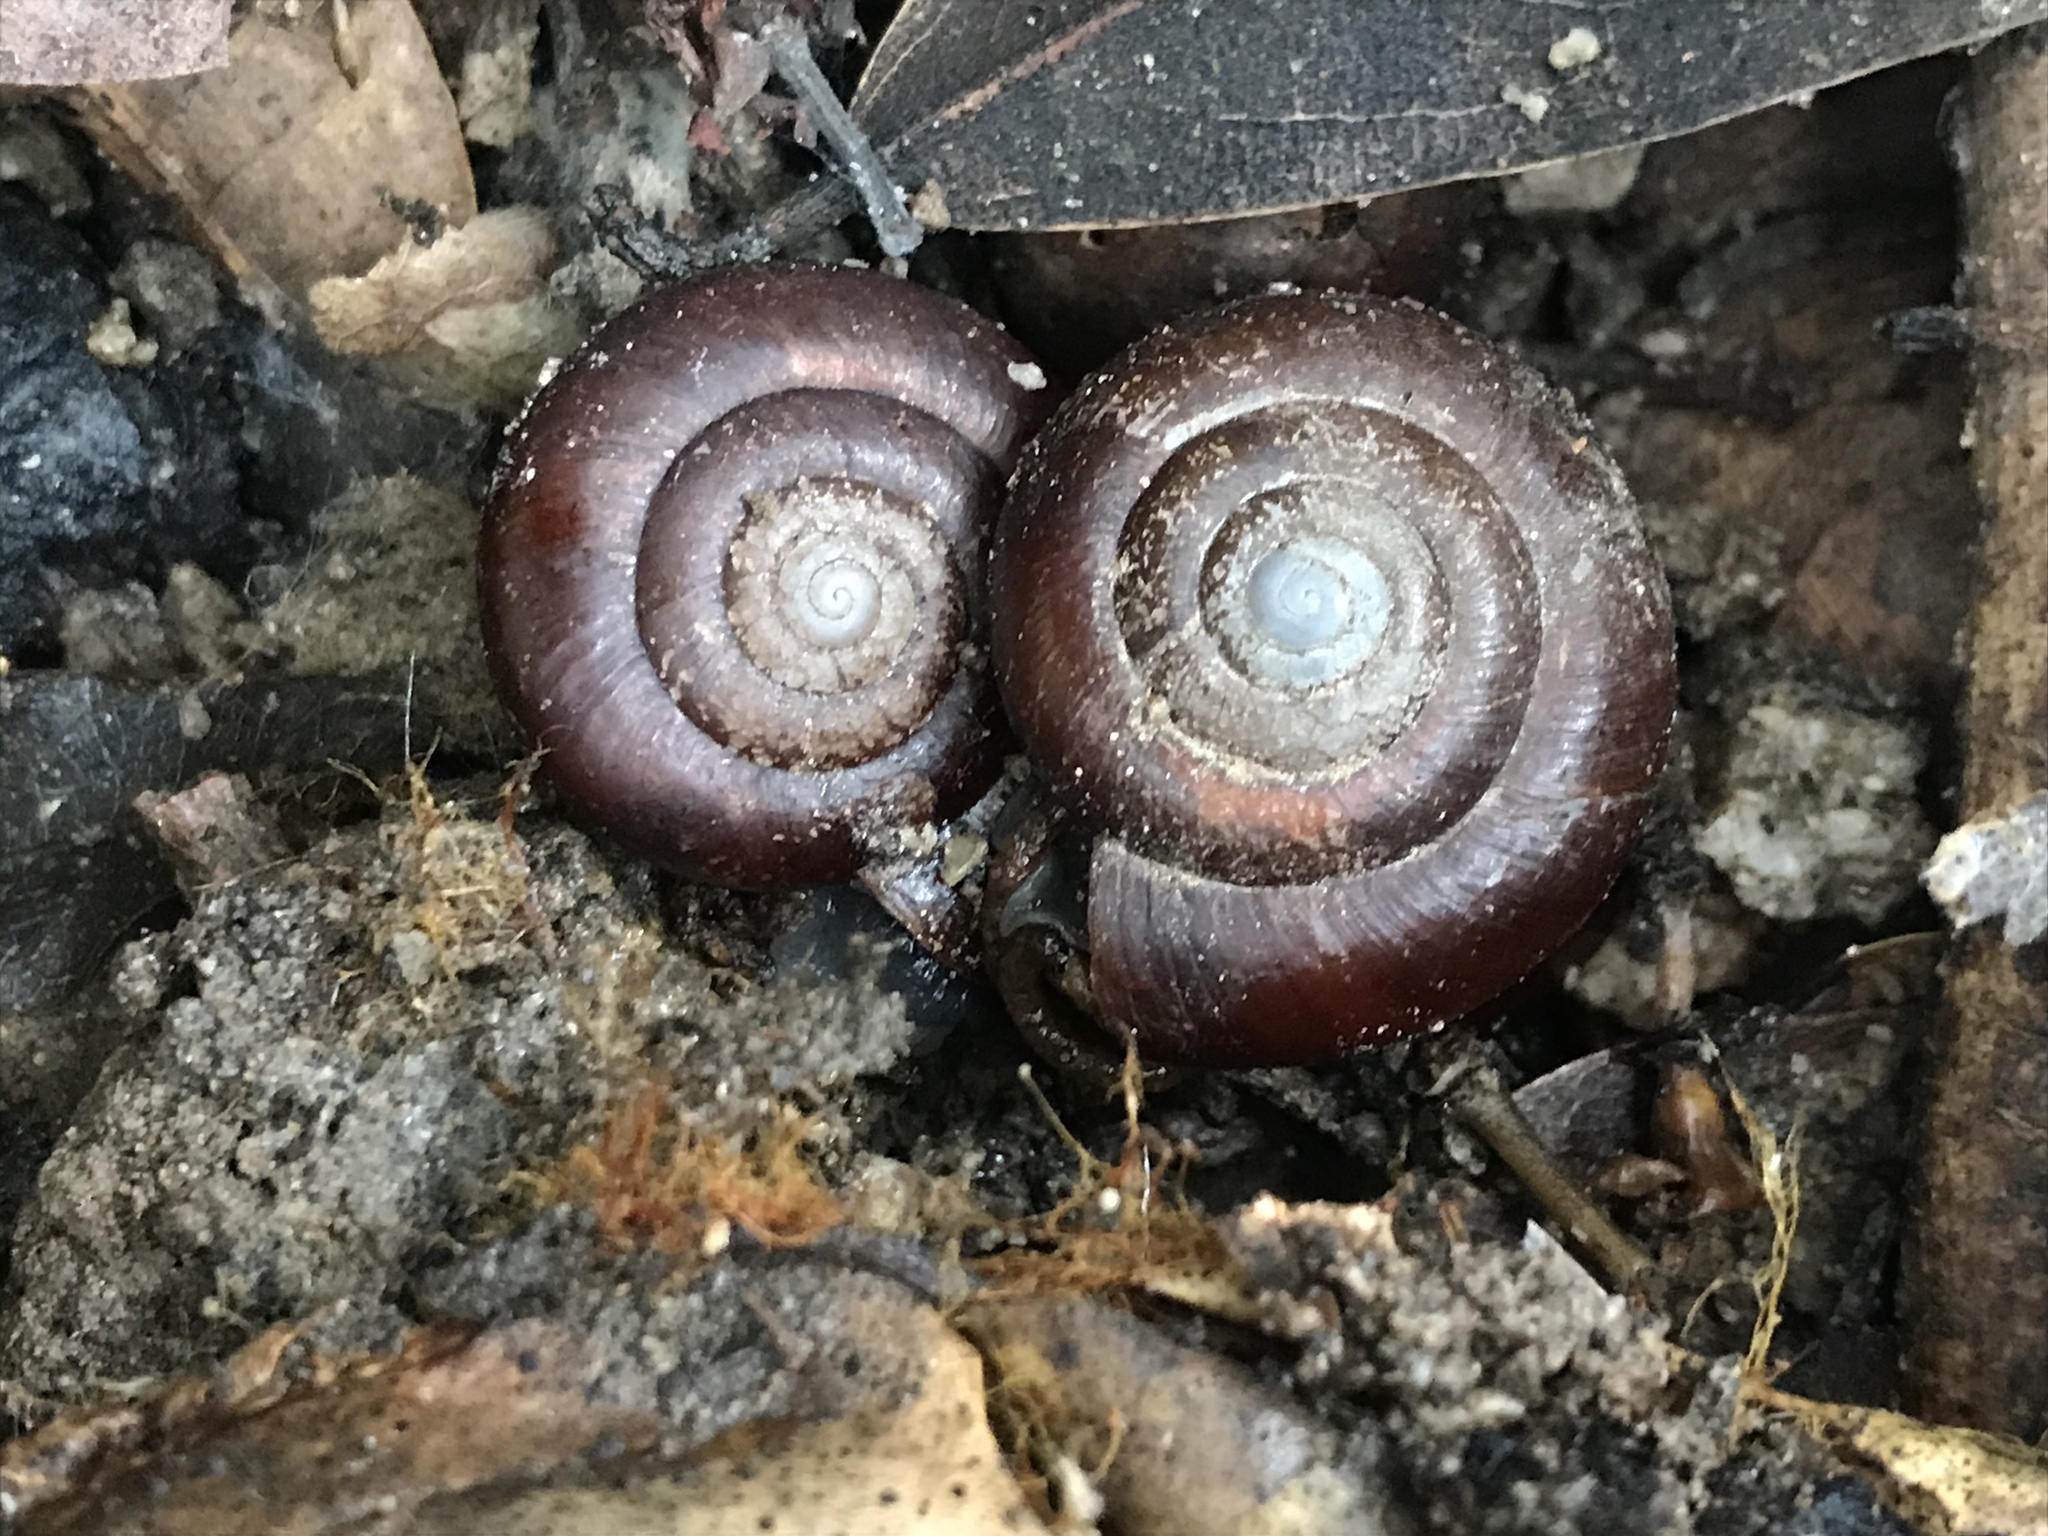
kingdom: Animalia
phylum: Mollusca
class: Gastropoda
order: Stylommatophora
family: Megomphicidae
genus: Glyptostoma
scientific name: Glyptostoma gabrielense
